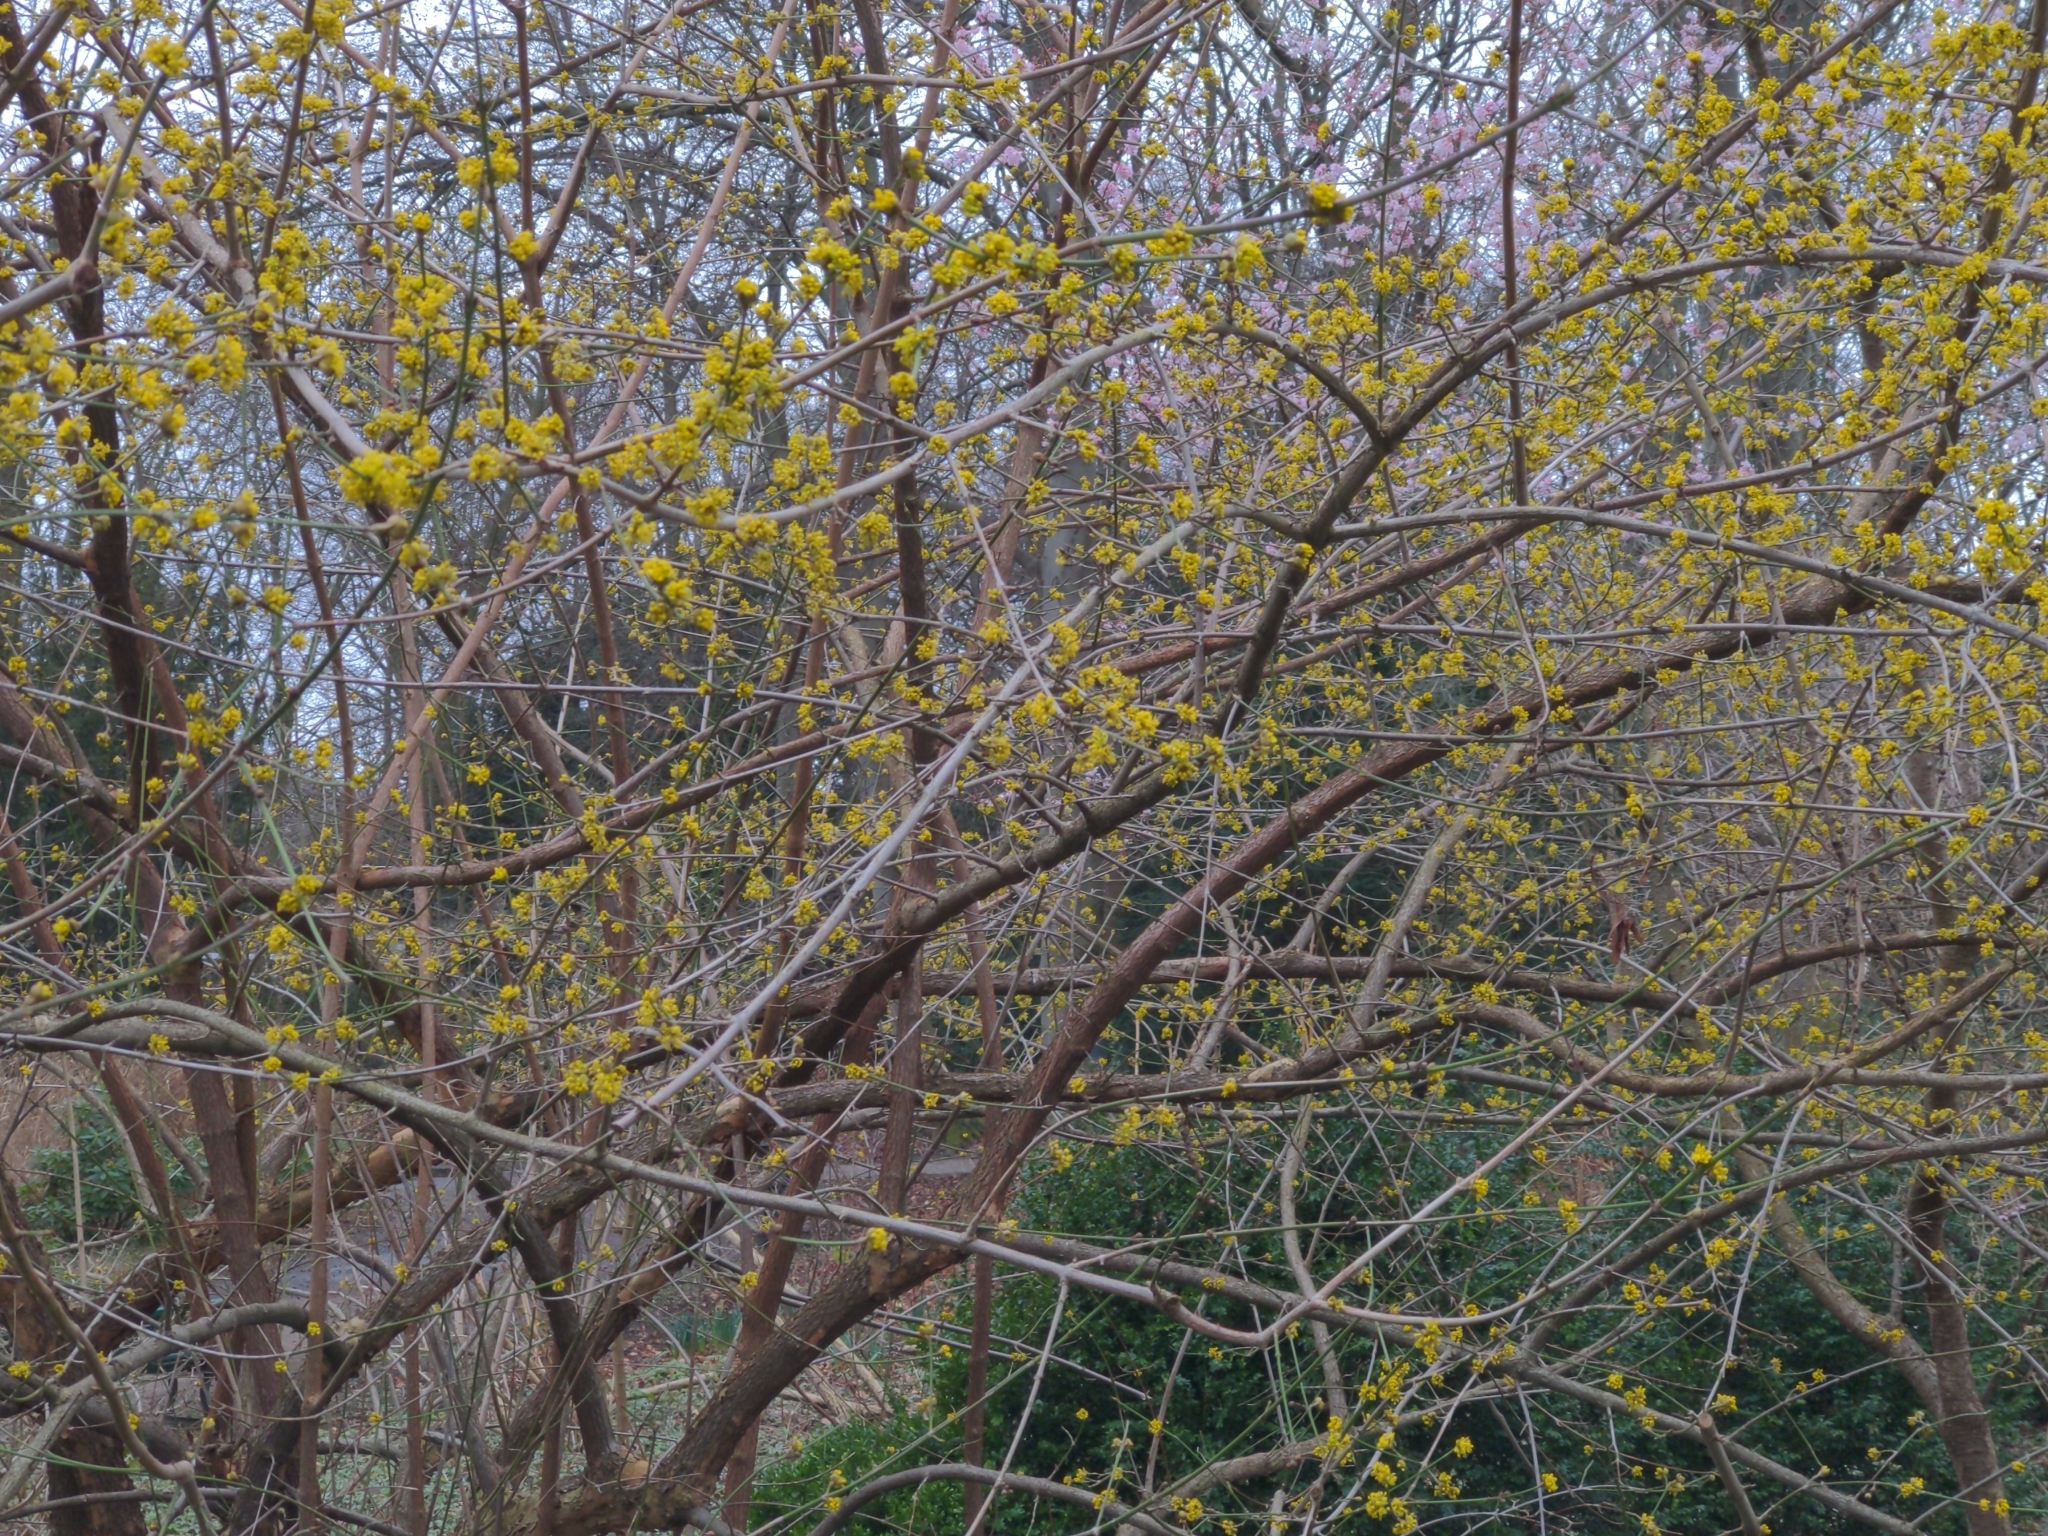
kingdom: Plantae
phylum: Tracheophyta
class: Magnoliopsida
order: Cornales
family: Cornaceae
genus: Cornus
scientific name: Cornus mas
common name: Cornelian-cherry
